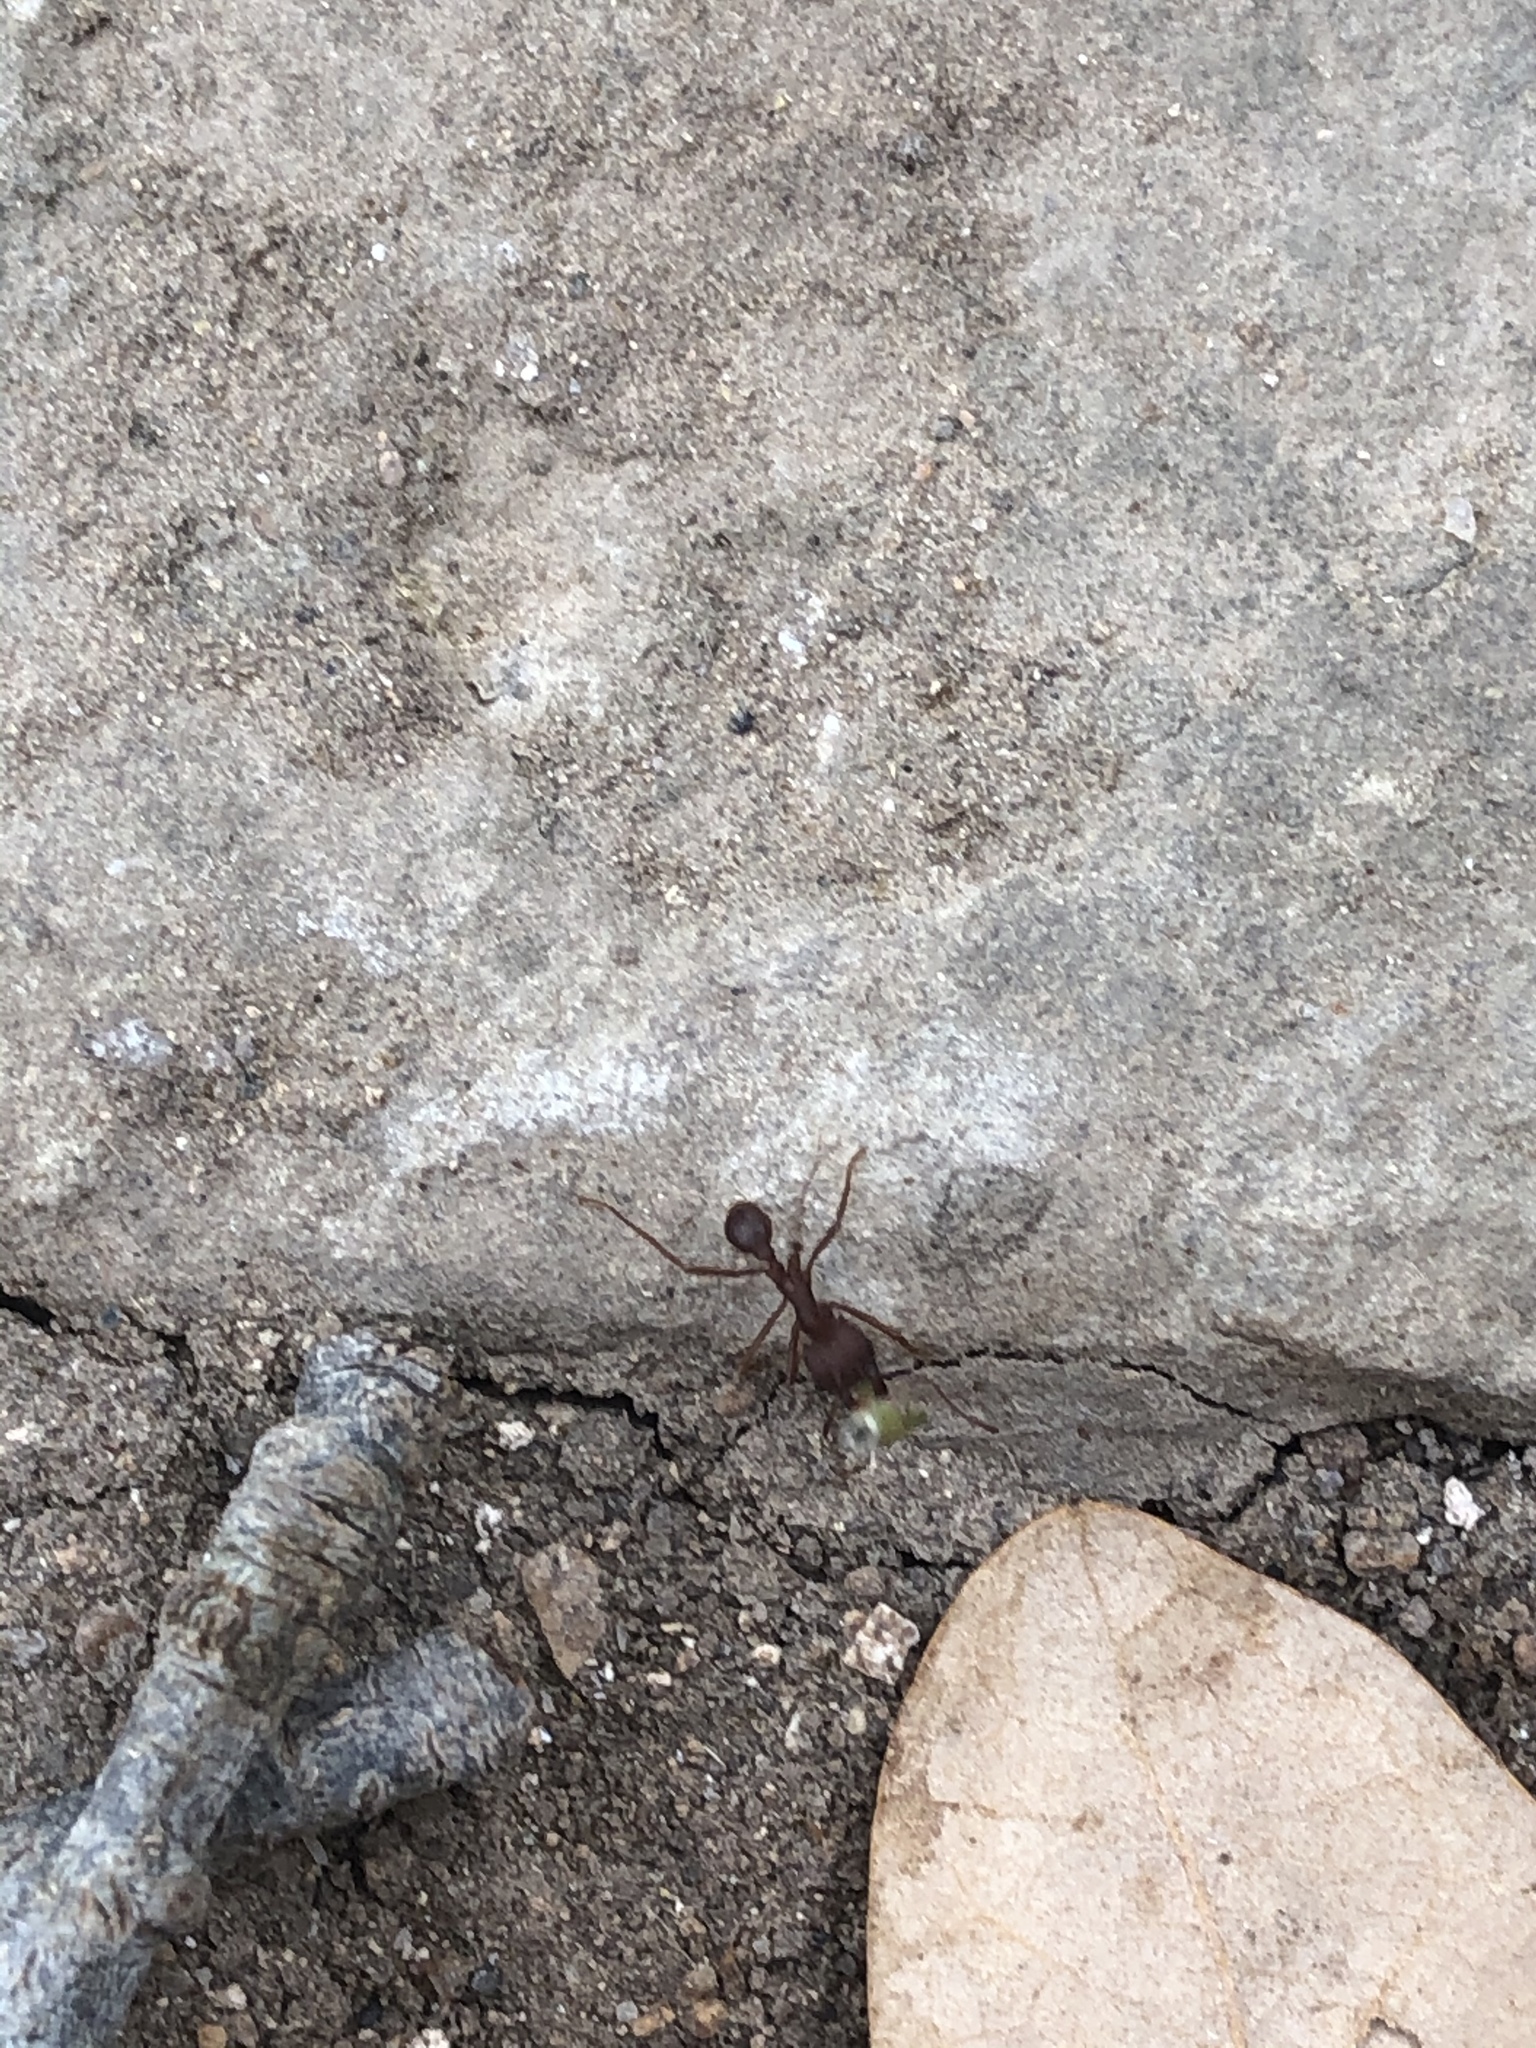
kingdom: Animalia
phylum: Arthropoda
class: Insecta
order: Hymenoptera
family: Formicidae
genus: Atta
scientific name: Atta texana
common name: Texas leafcutting ant
